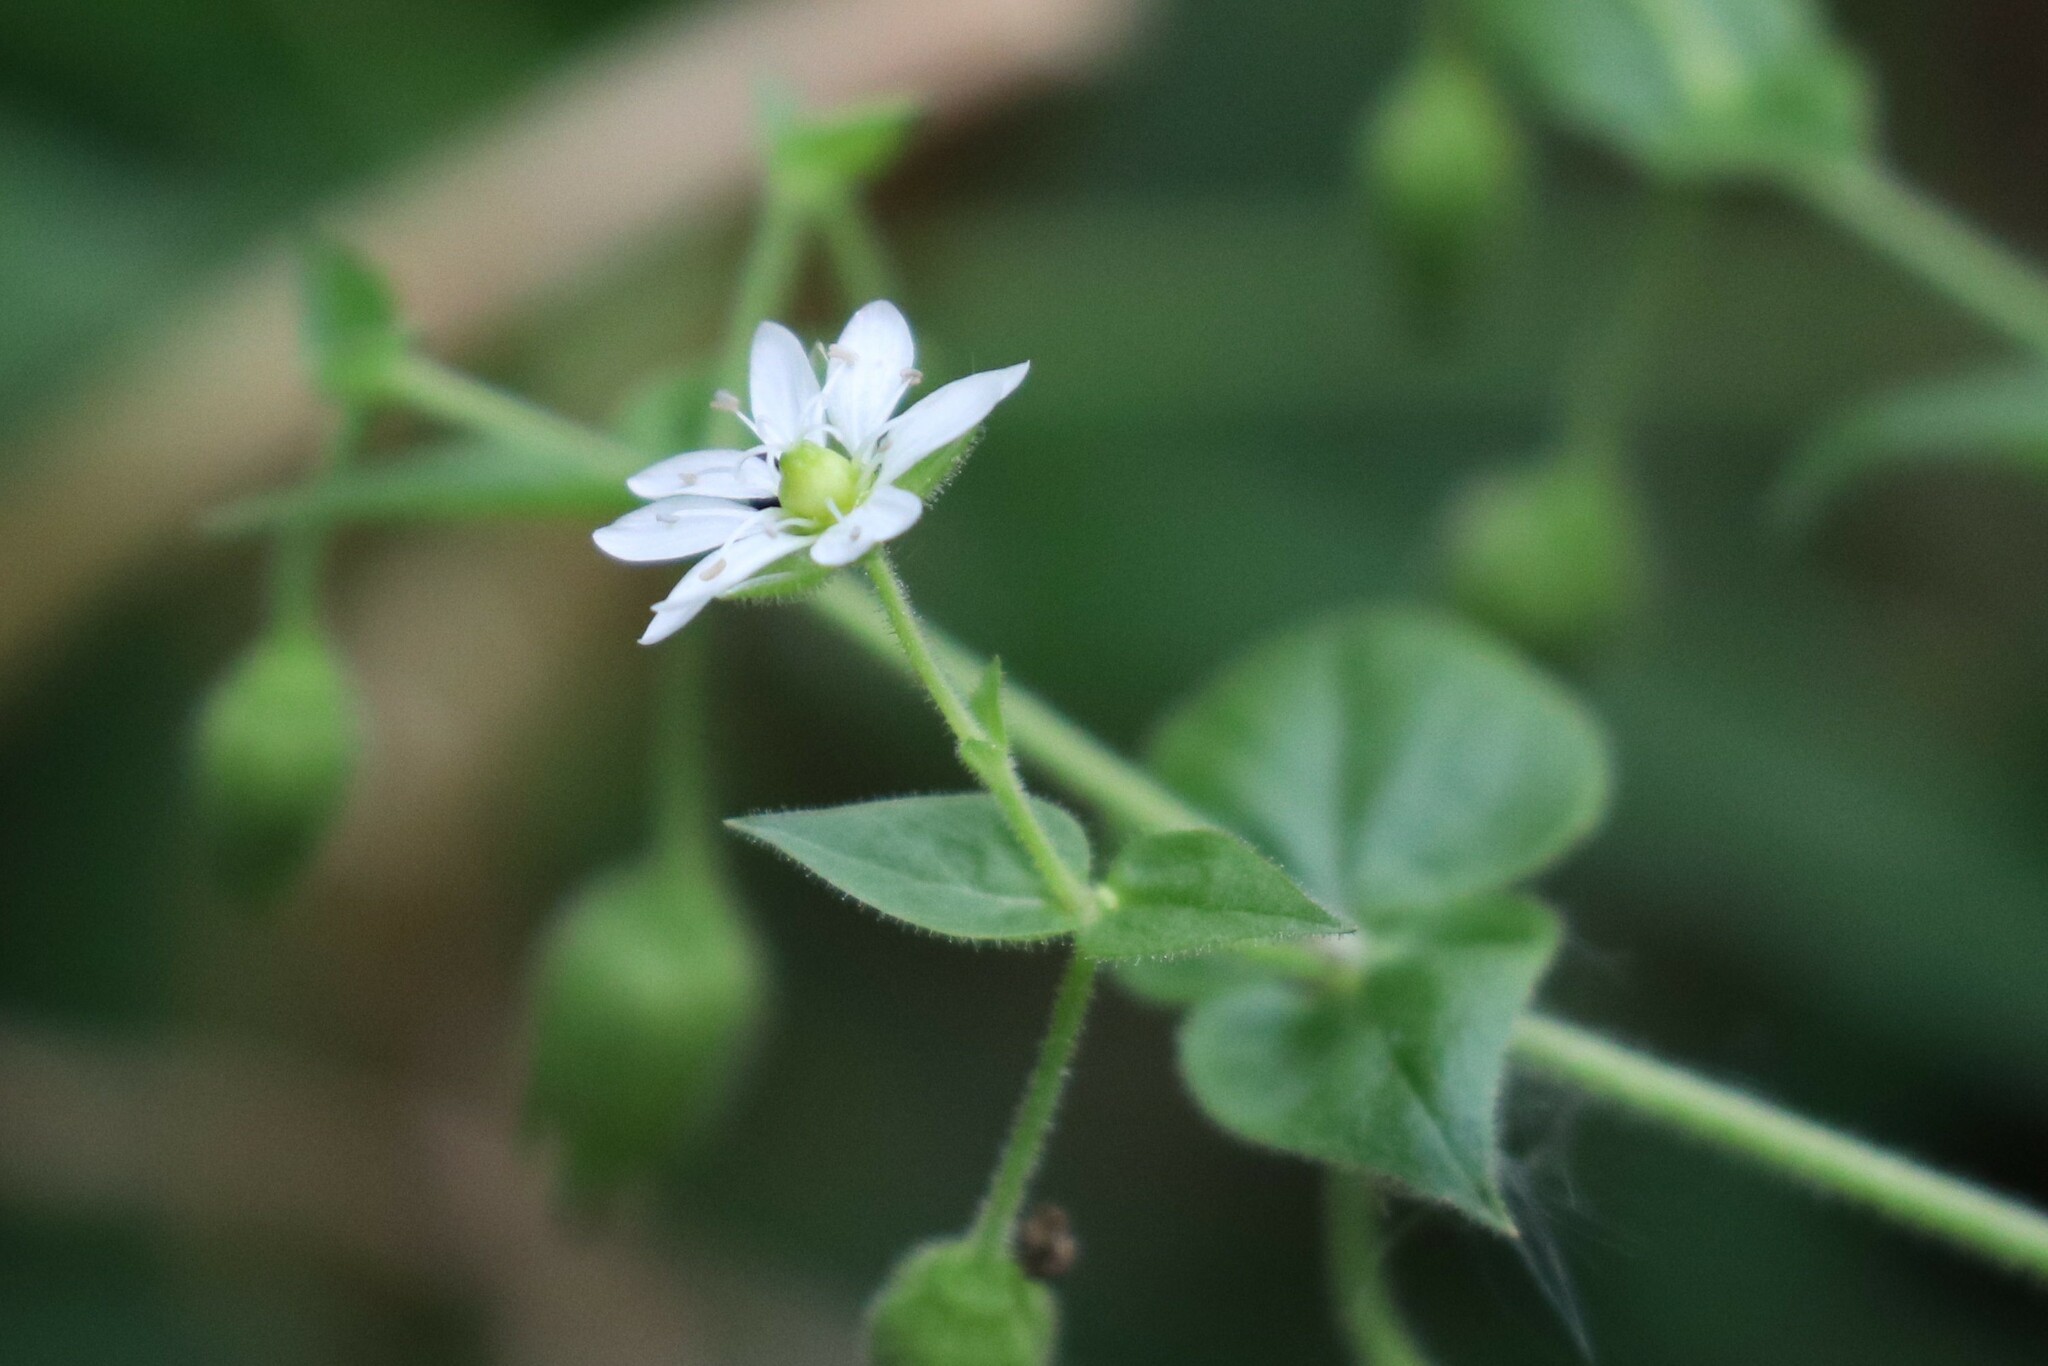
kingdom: Plantae
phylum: Tracheophyta
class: Magnoliopsida
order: Caryophyllales
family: Caryophyllaceae
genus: Stellaria
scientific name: Stellaria aquatica
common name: Water chickweed
